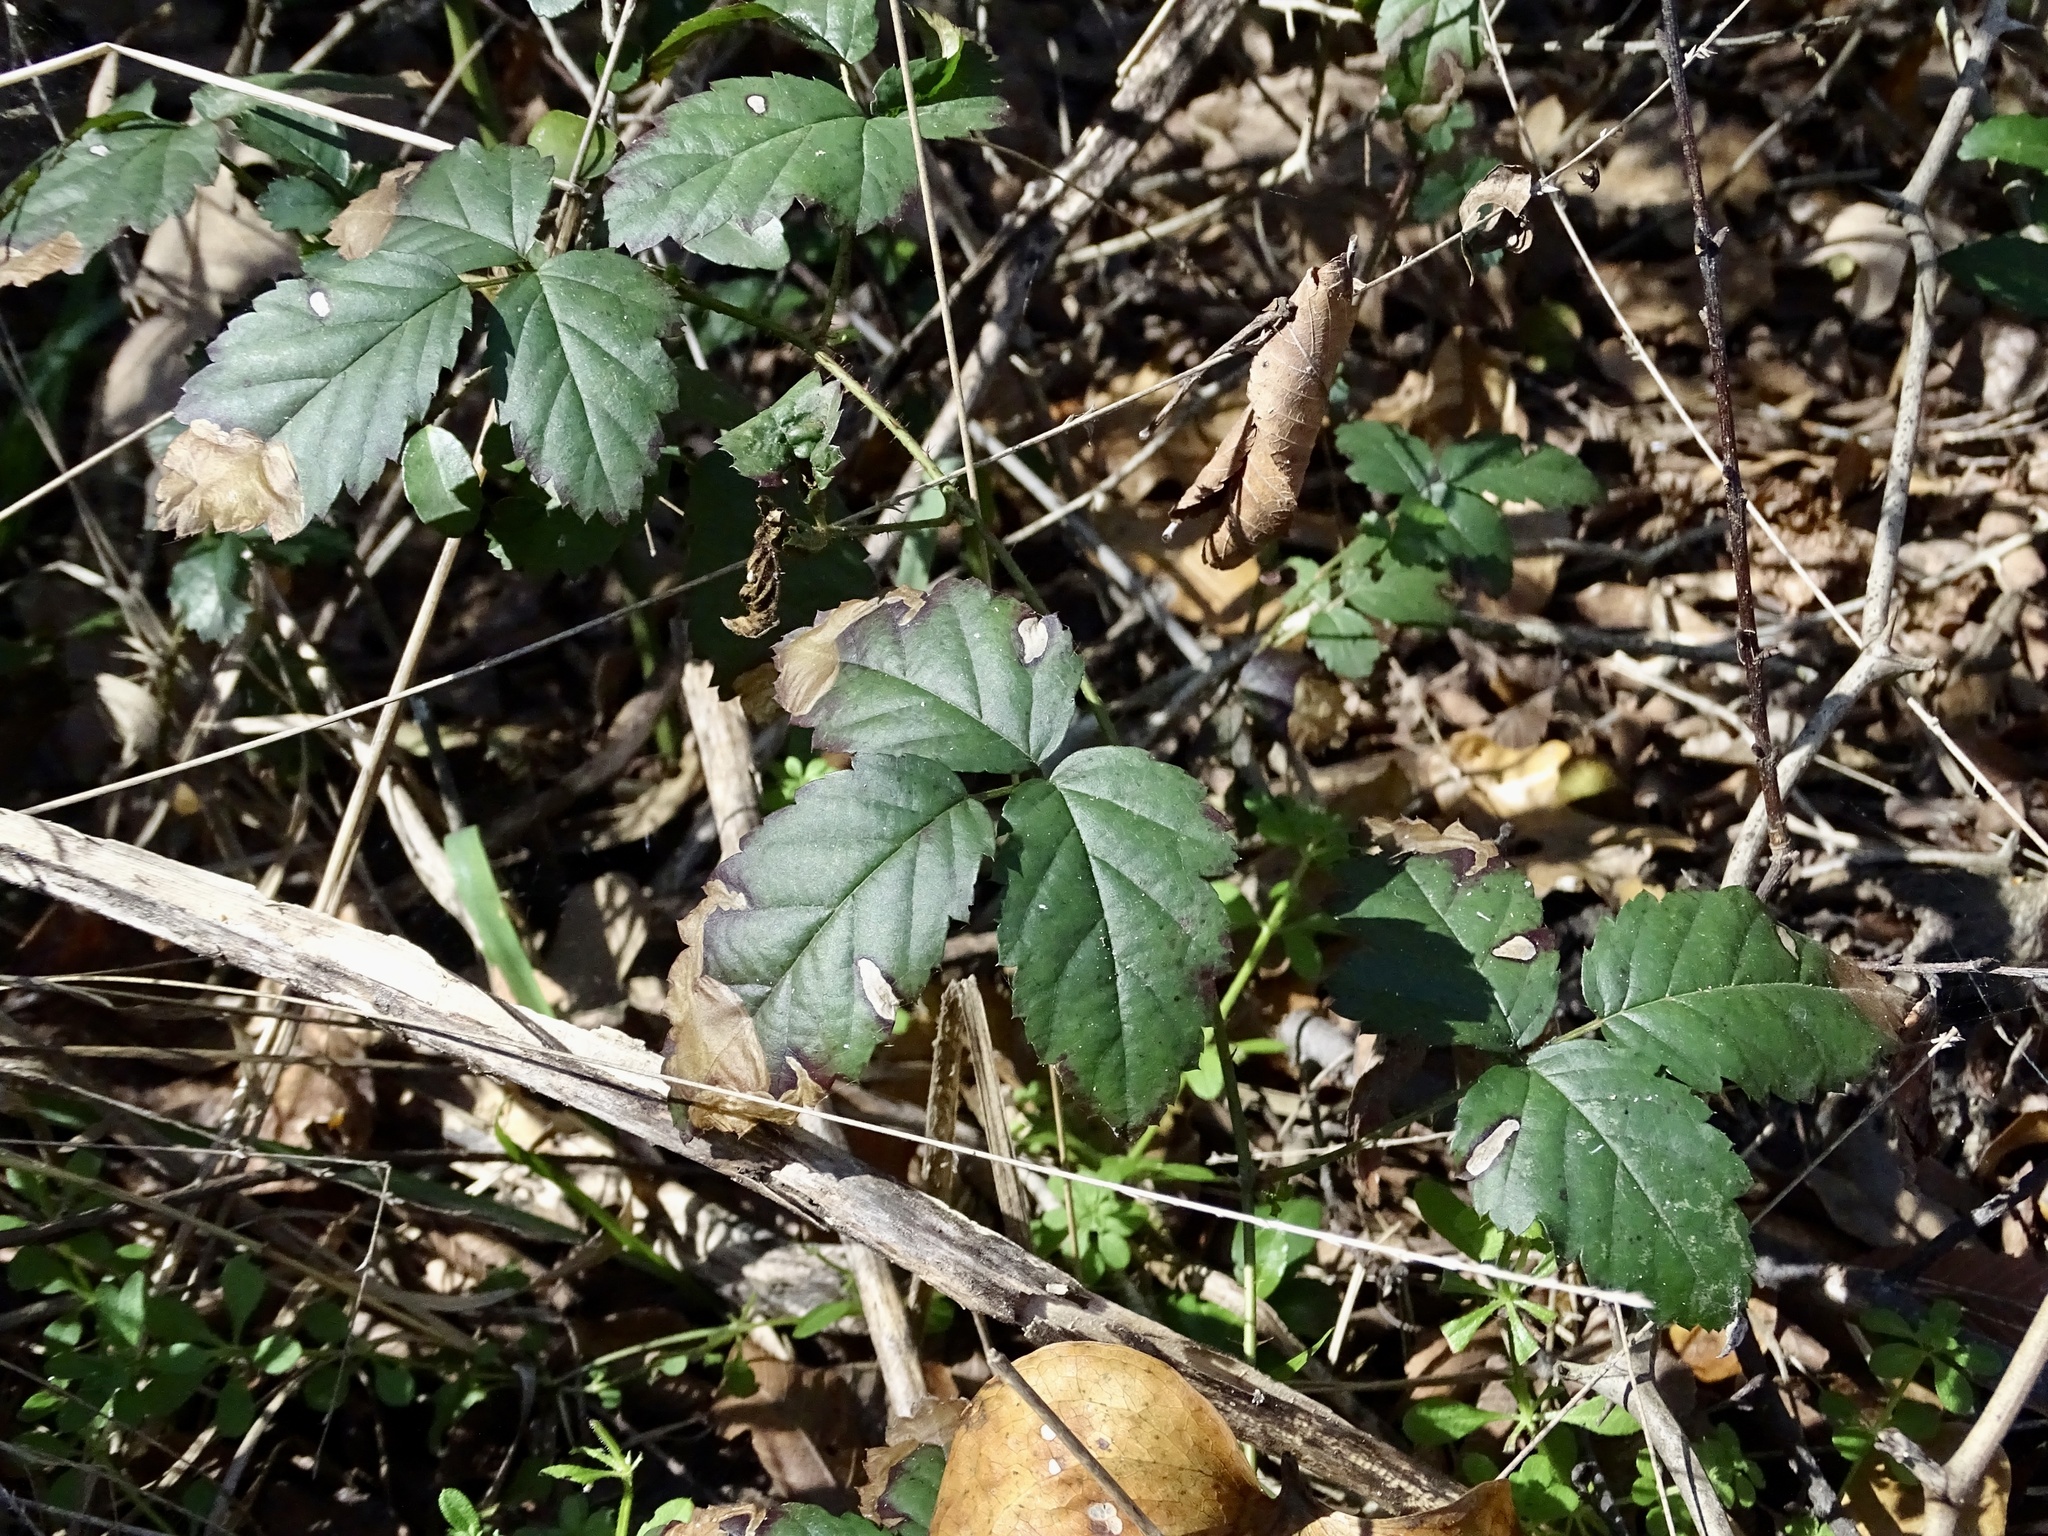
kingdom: Plantae
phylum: Tracheophyta
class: Magnoliopsida
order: Rosales
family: Rosaceae
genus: Rubus
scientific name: Rubus trivialis
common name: Southern dewberry
